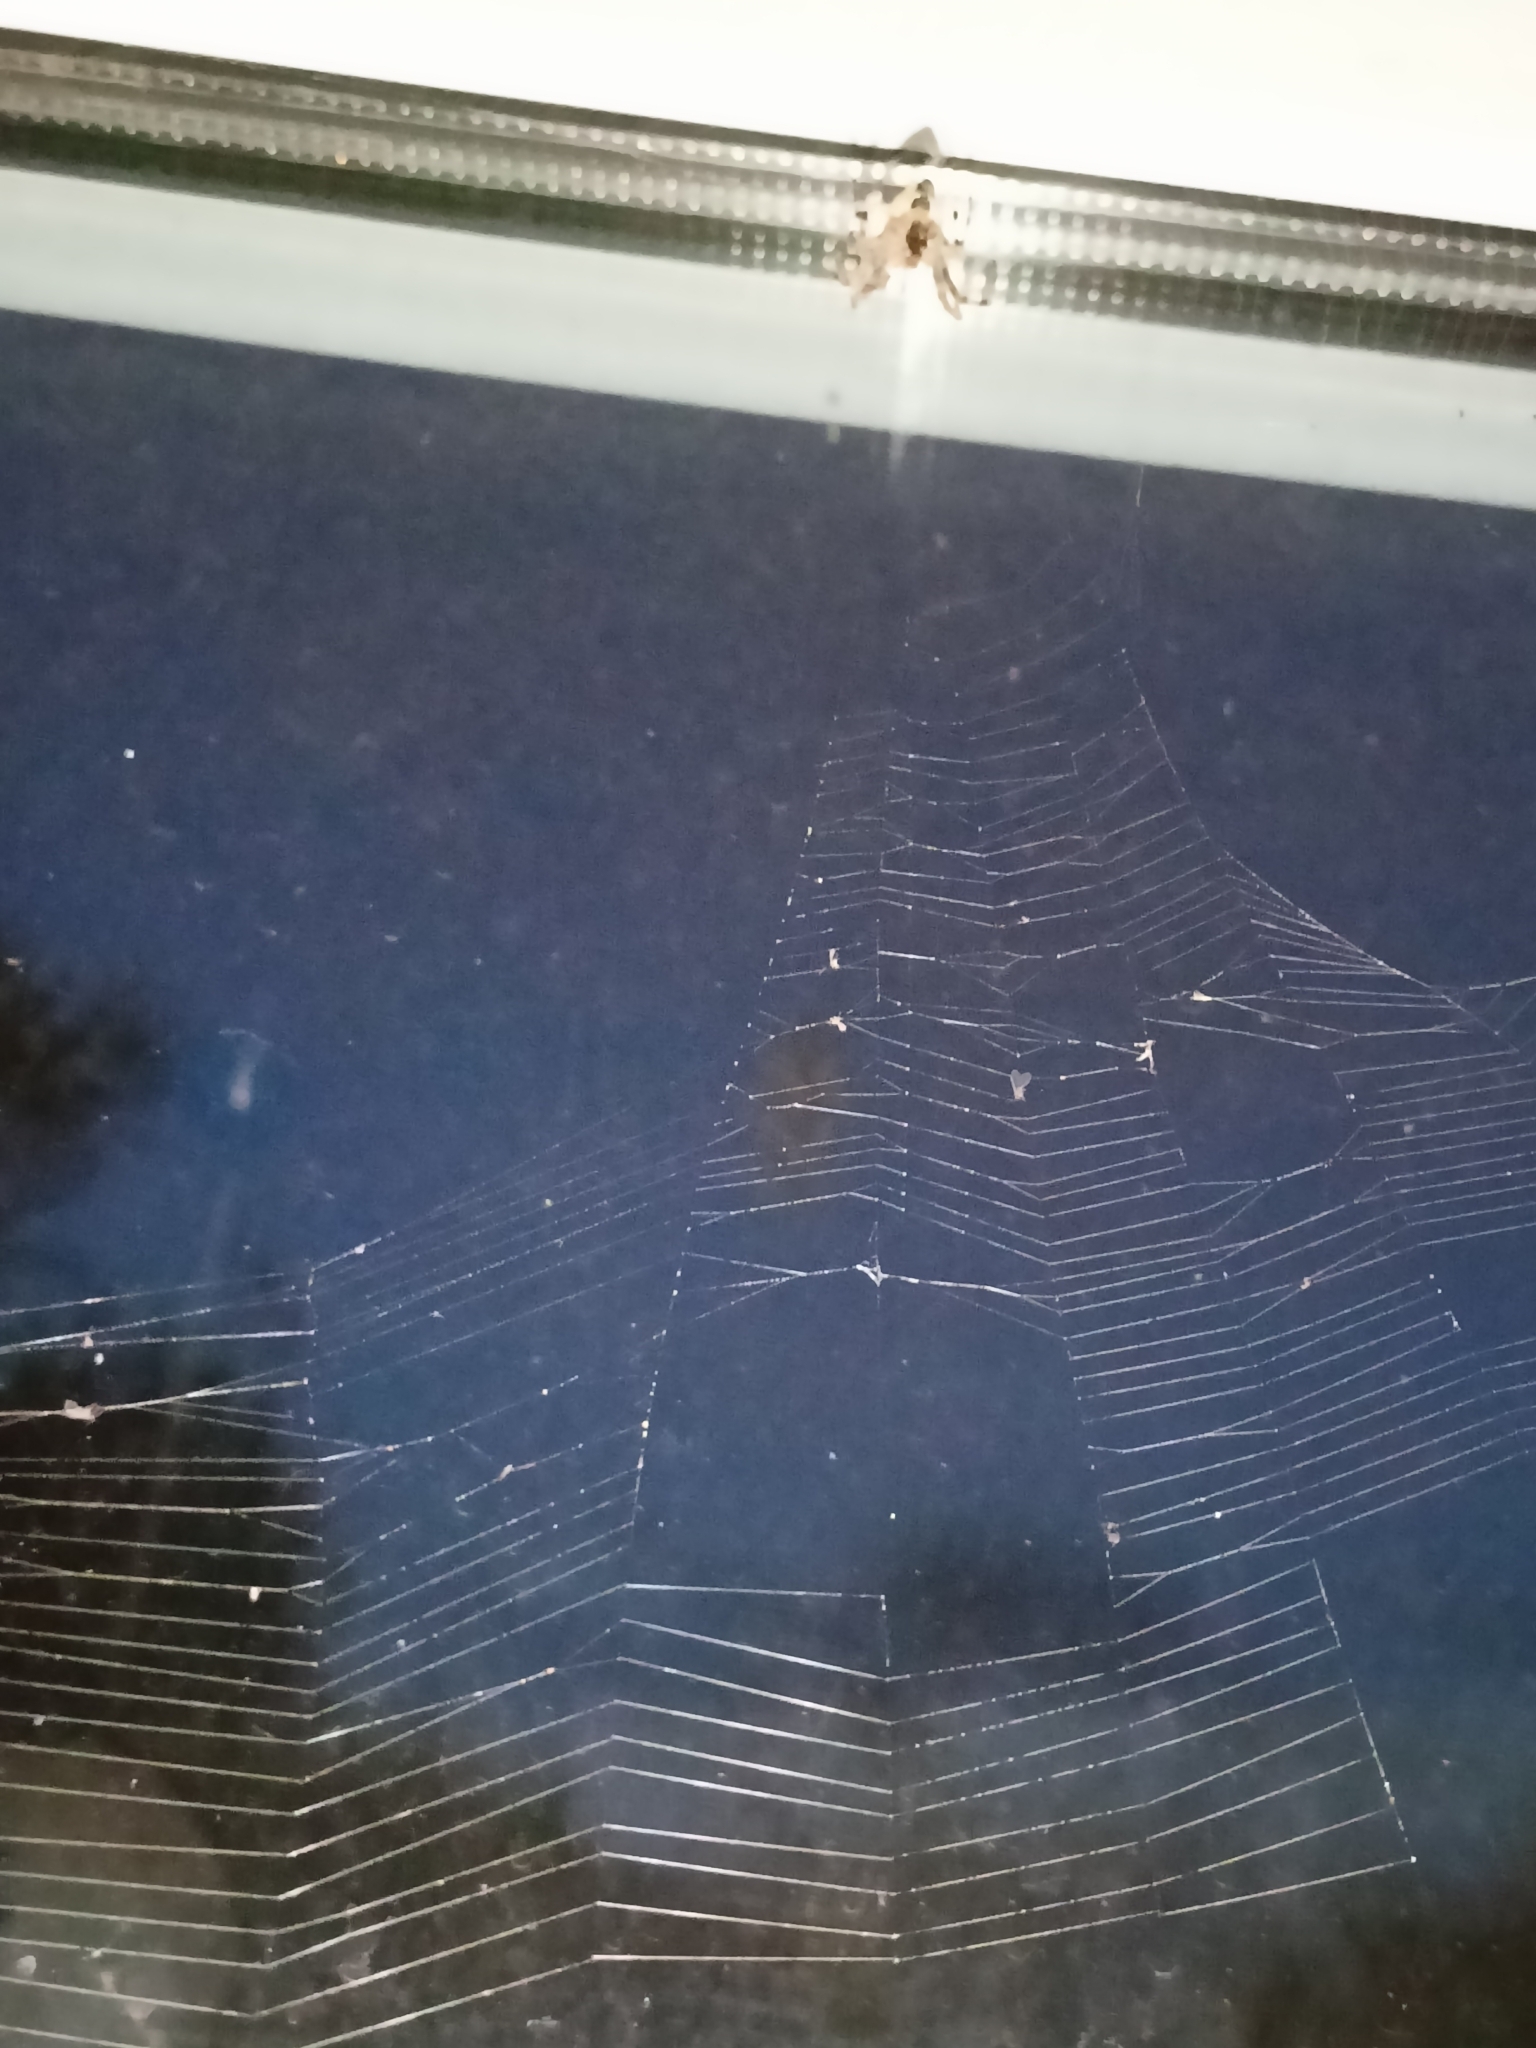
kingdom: Animalia
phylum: Arthropoda
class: Arachnida
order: Araneae
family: Araneidae
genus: Araneus
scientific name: Araneus diadematus
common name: Cross orbweaver
